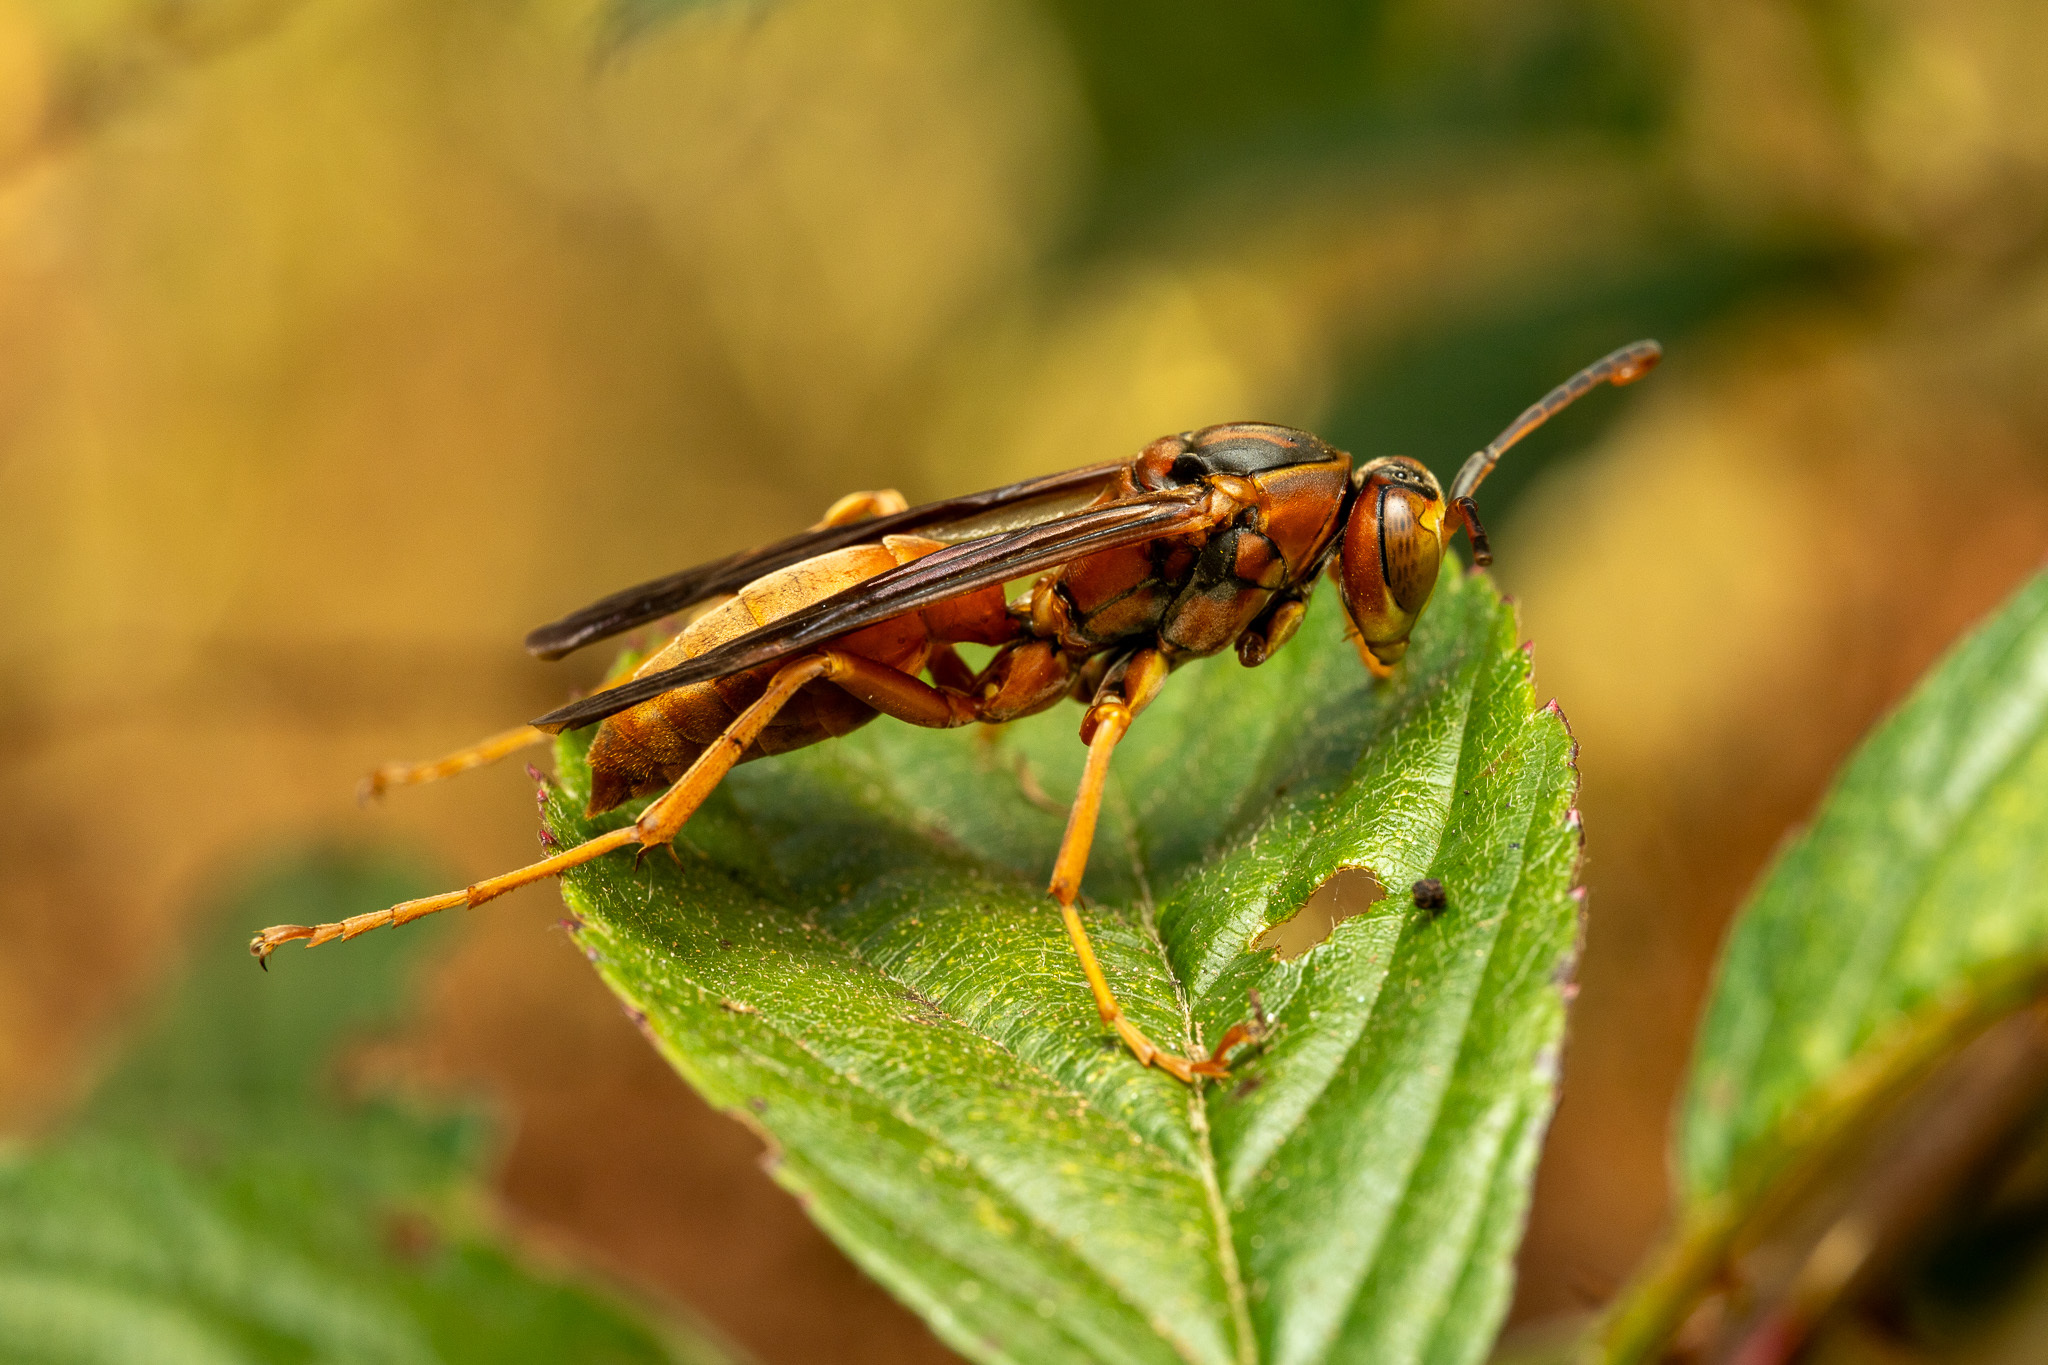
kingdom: Animalia
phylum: Arthropoda
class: Insecta
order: Hymenoptera
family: Eumenidae
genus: Polistes
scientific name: Polistes carolina
